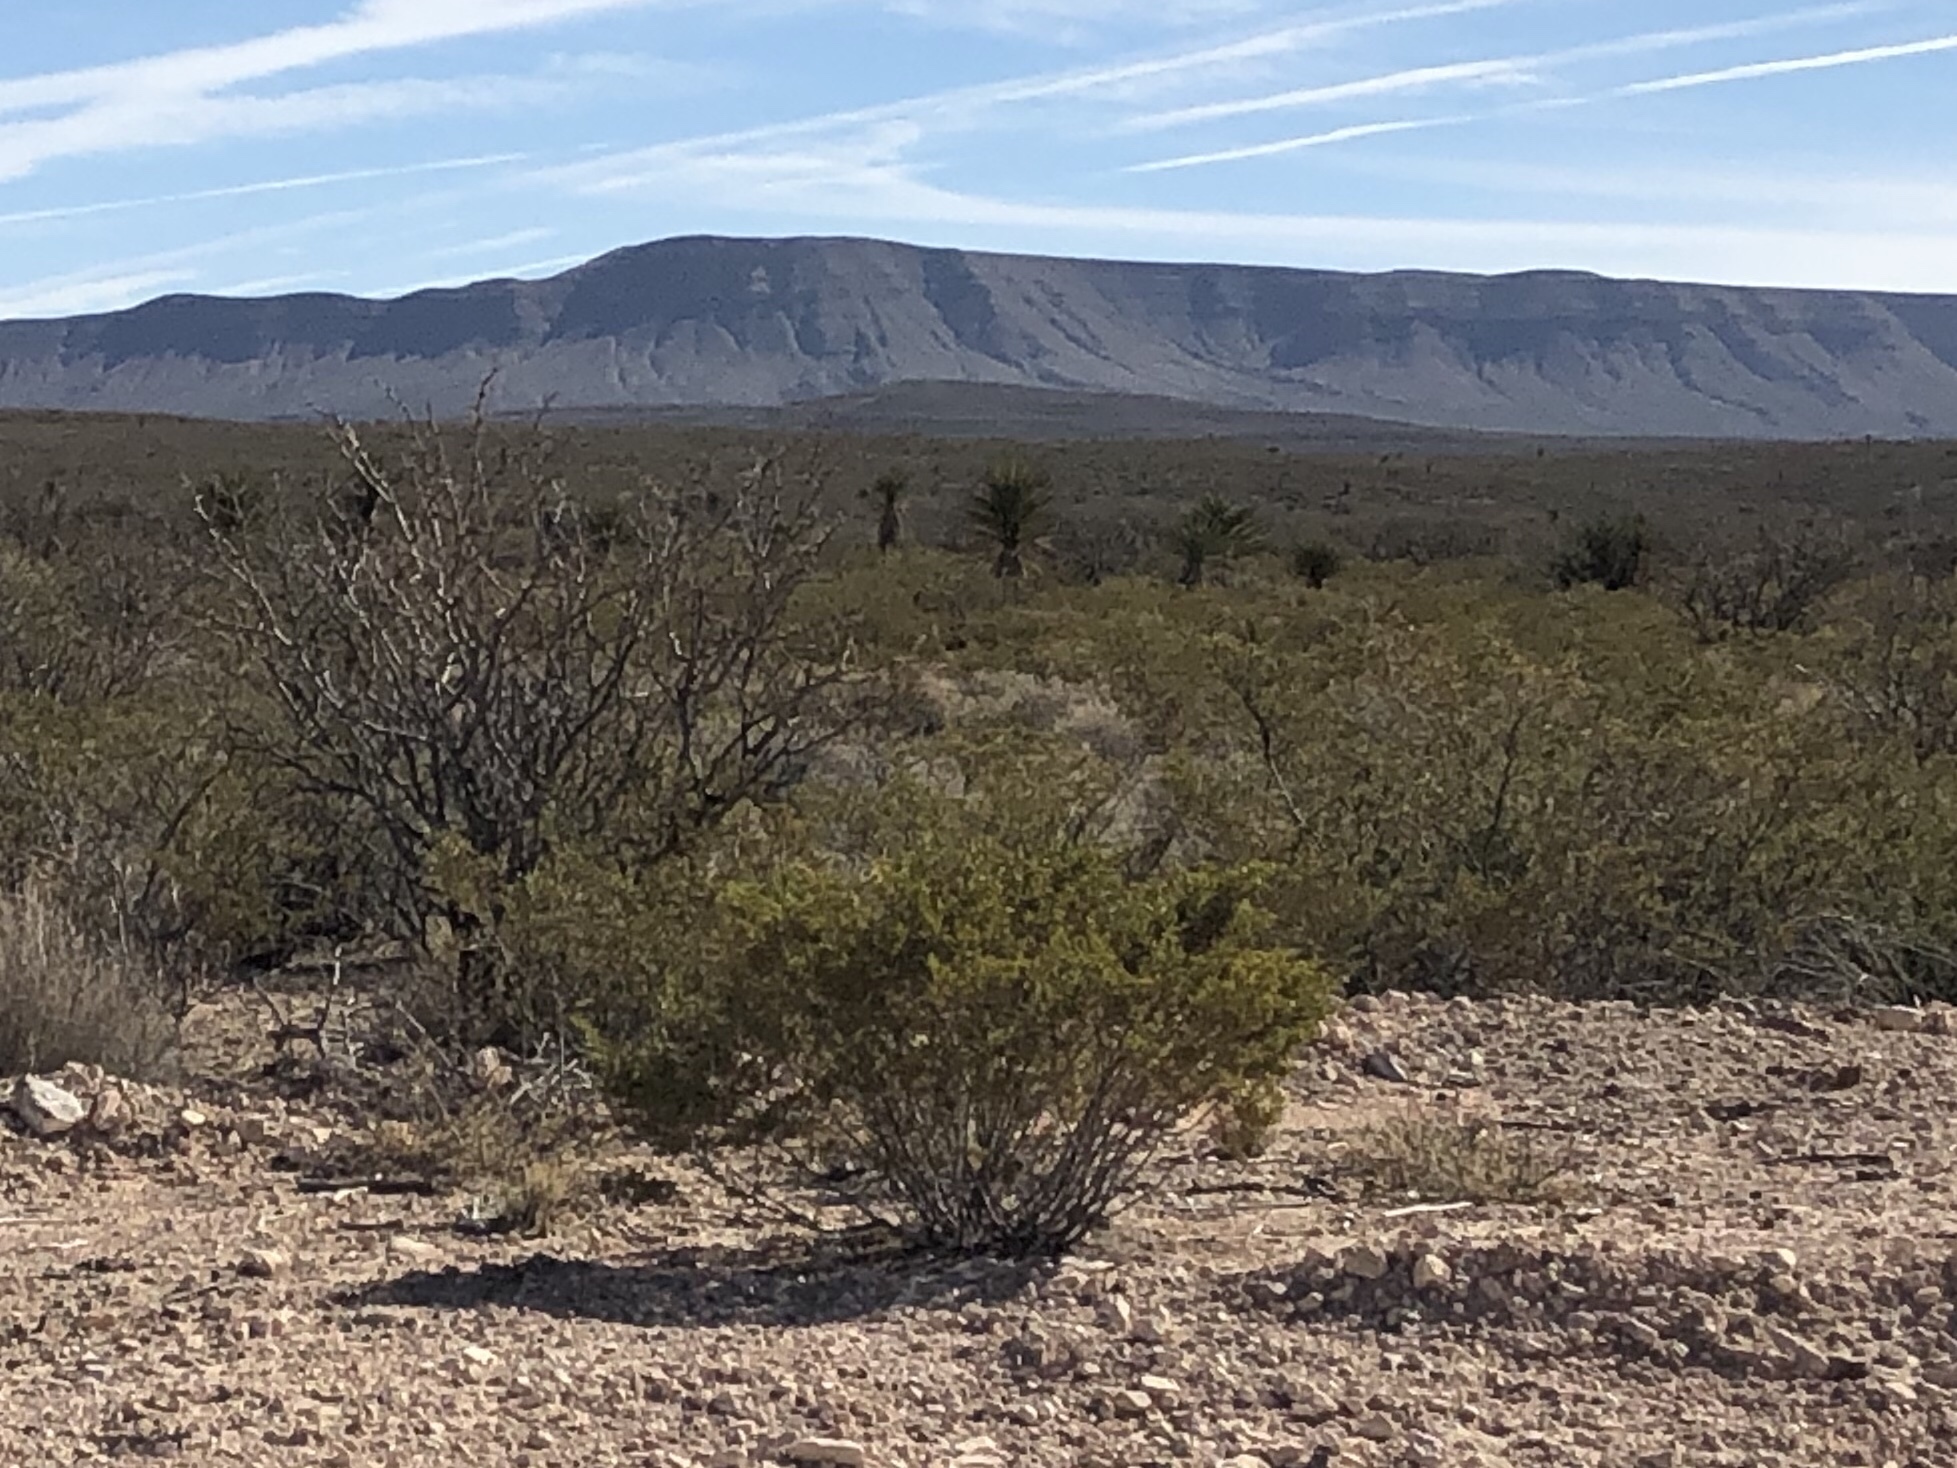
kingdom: Plantae
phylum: Tracheophyta
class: Magnoliopsida
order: Zygophyllales
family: Zygophyllaceae
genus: Larrea
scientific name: Larrea tridentata
